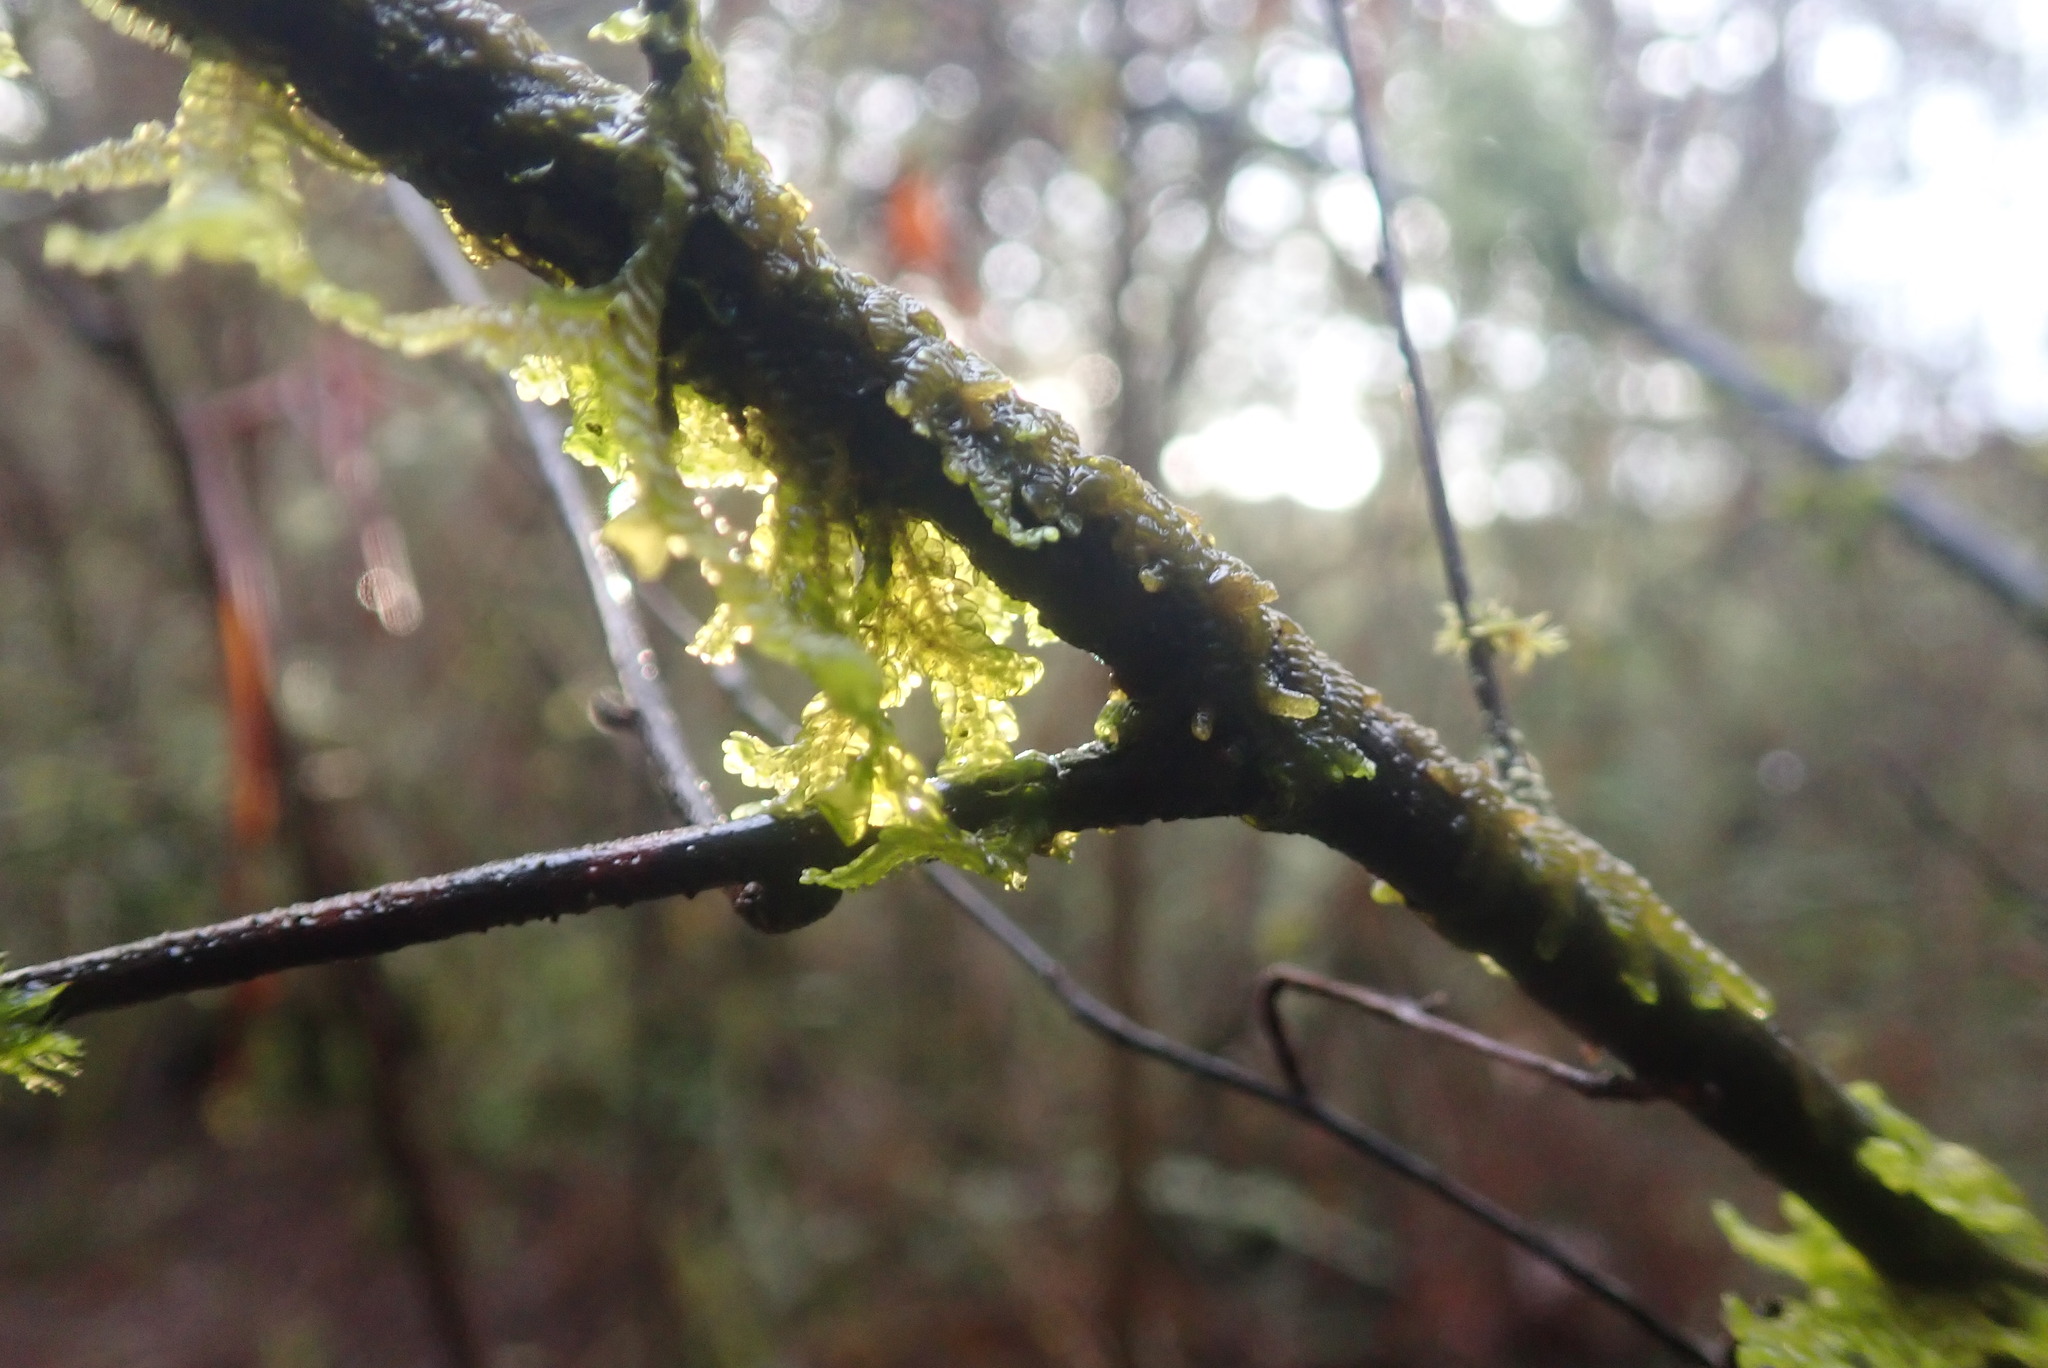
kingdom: Plantae
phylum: Marchantiophyta
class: Jungermanniopsida
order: Porellales
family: Porellaceae
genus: Porella
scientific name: Porella navicularis
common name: Tree ruffle liverwort
